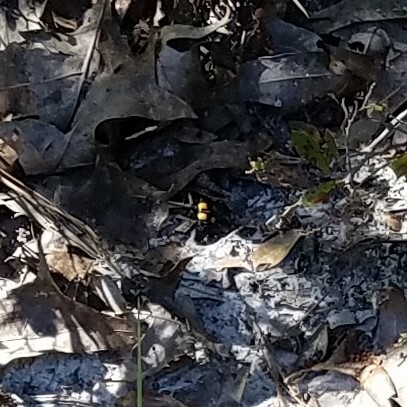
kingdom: Animalia
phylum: Arthropoda
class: Insecta
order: Hymenoptera
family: Scoliidae
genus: Pygodasis
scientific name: Pygodasis
